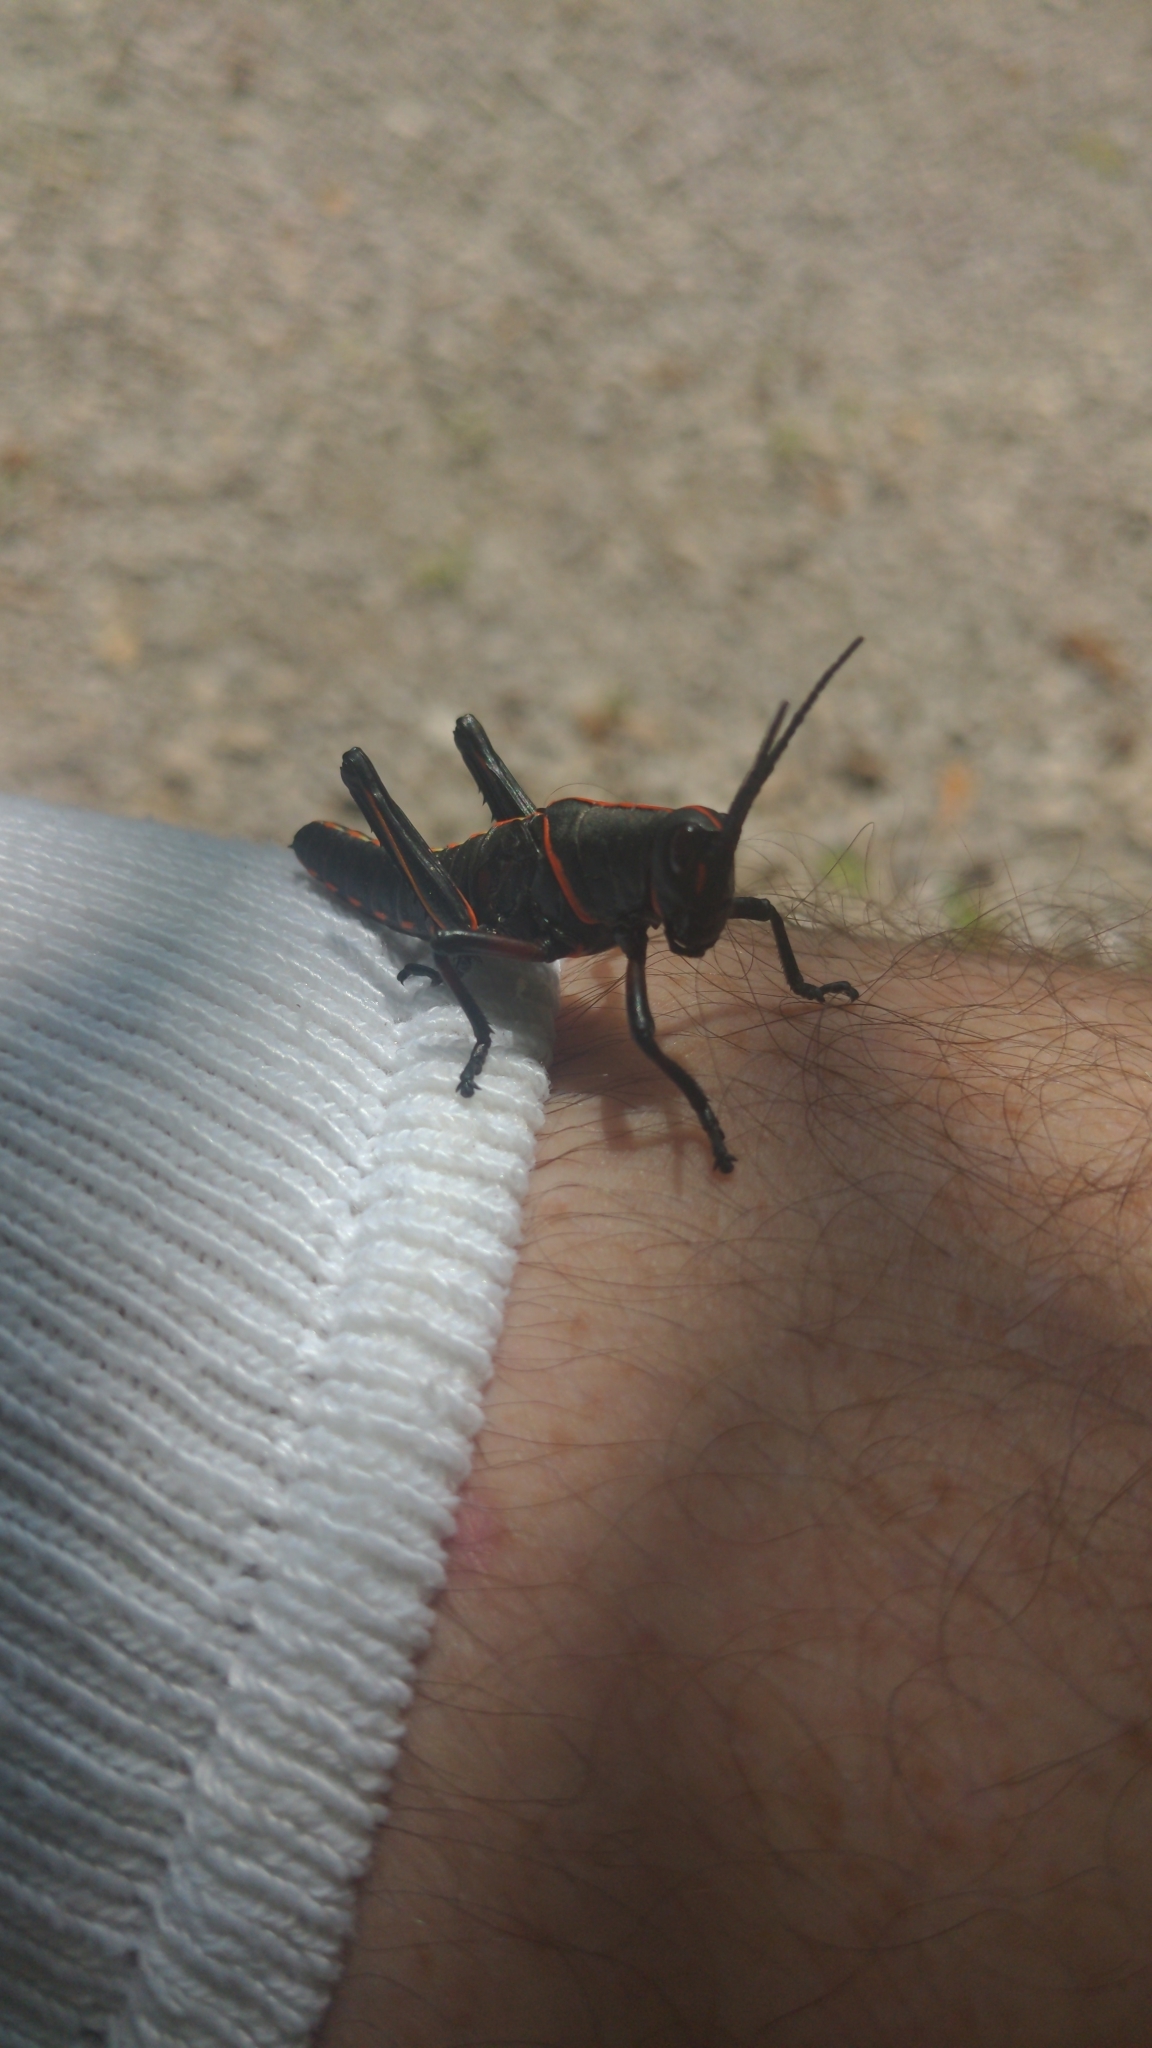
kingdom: Animalia
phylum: Arthropoda
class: Insecta
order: Orthoptera
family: Romaleidae
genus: Romalea
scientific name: Romalea microptera
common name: Eastern lubber grasshopper
